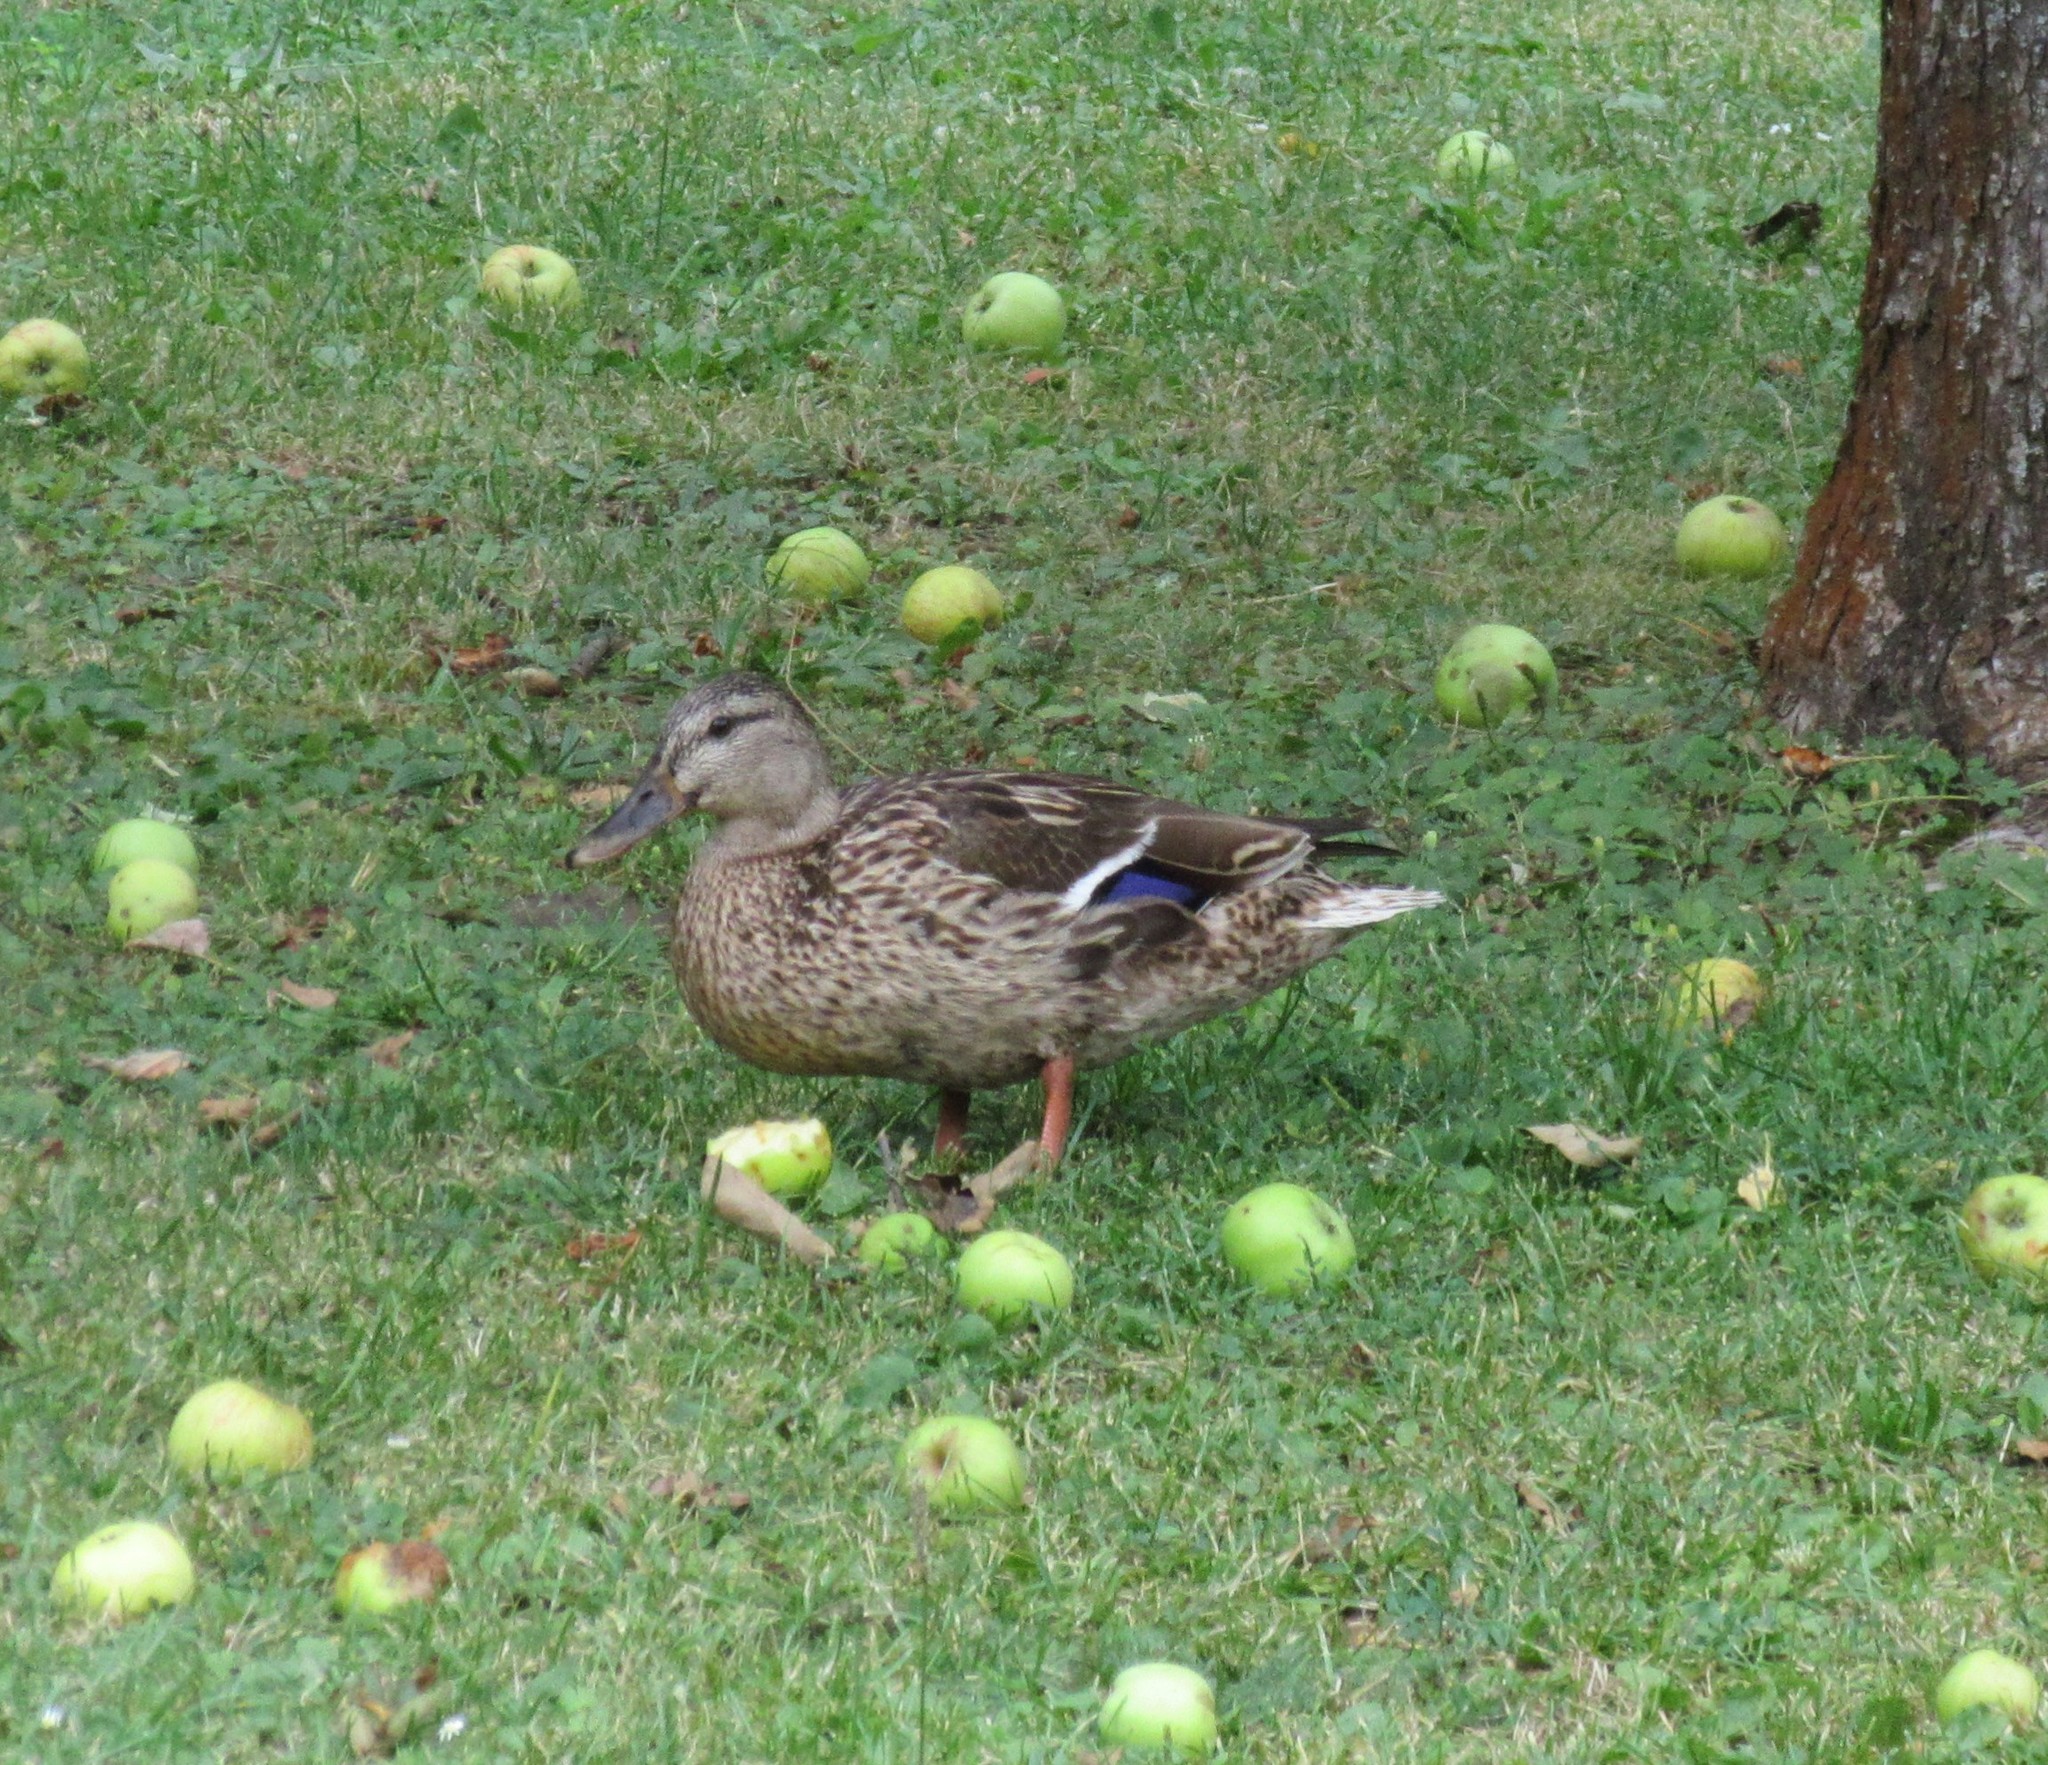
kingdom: Animalia
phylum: Chordata
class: Aves
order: Anseriformes
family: Anatidae
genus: Anas
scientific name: Anas platyrhynchos
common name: Mallard
